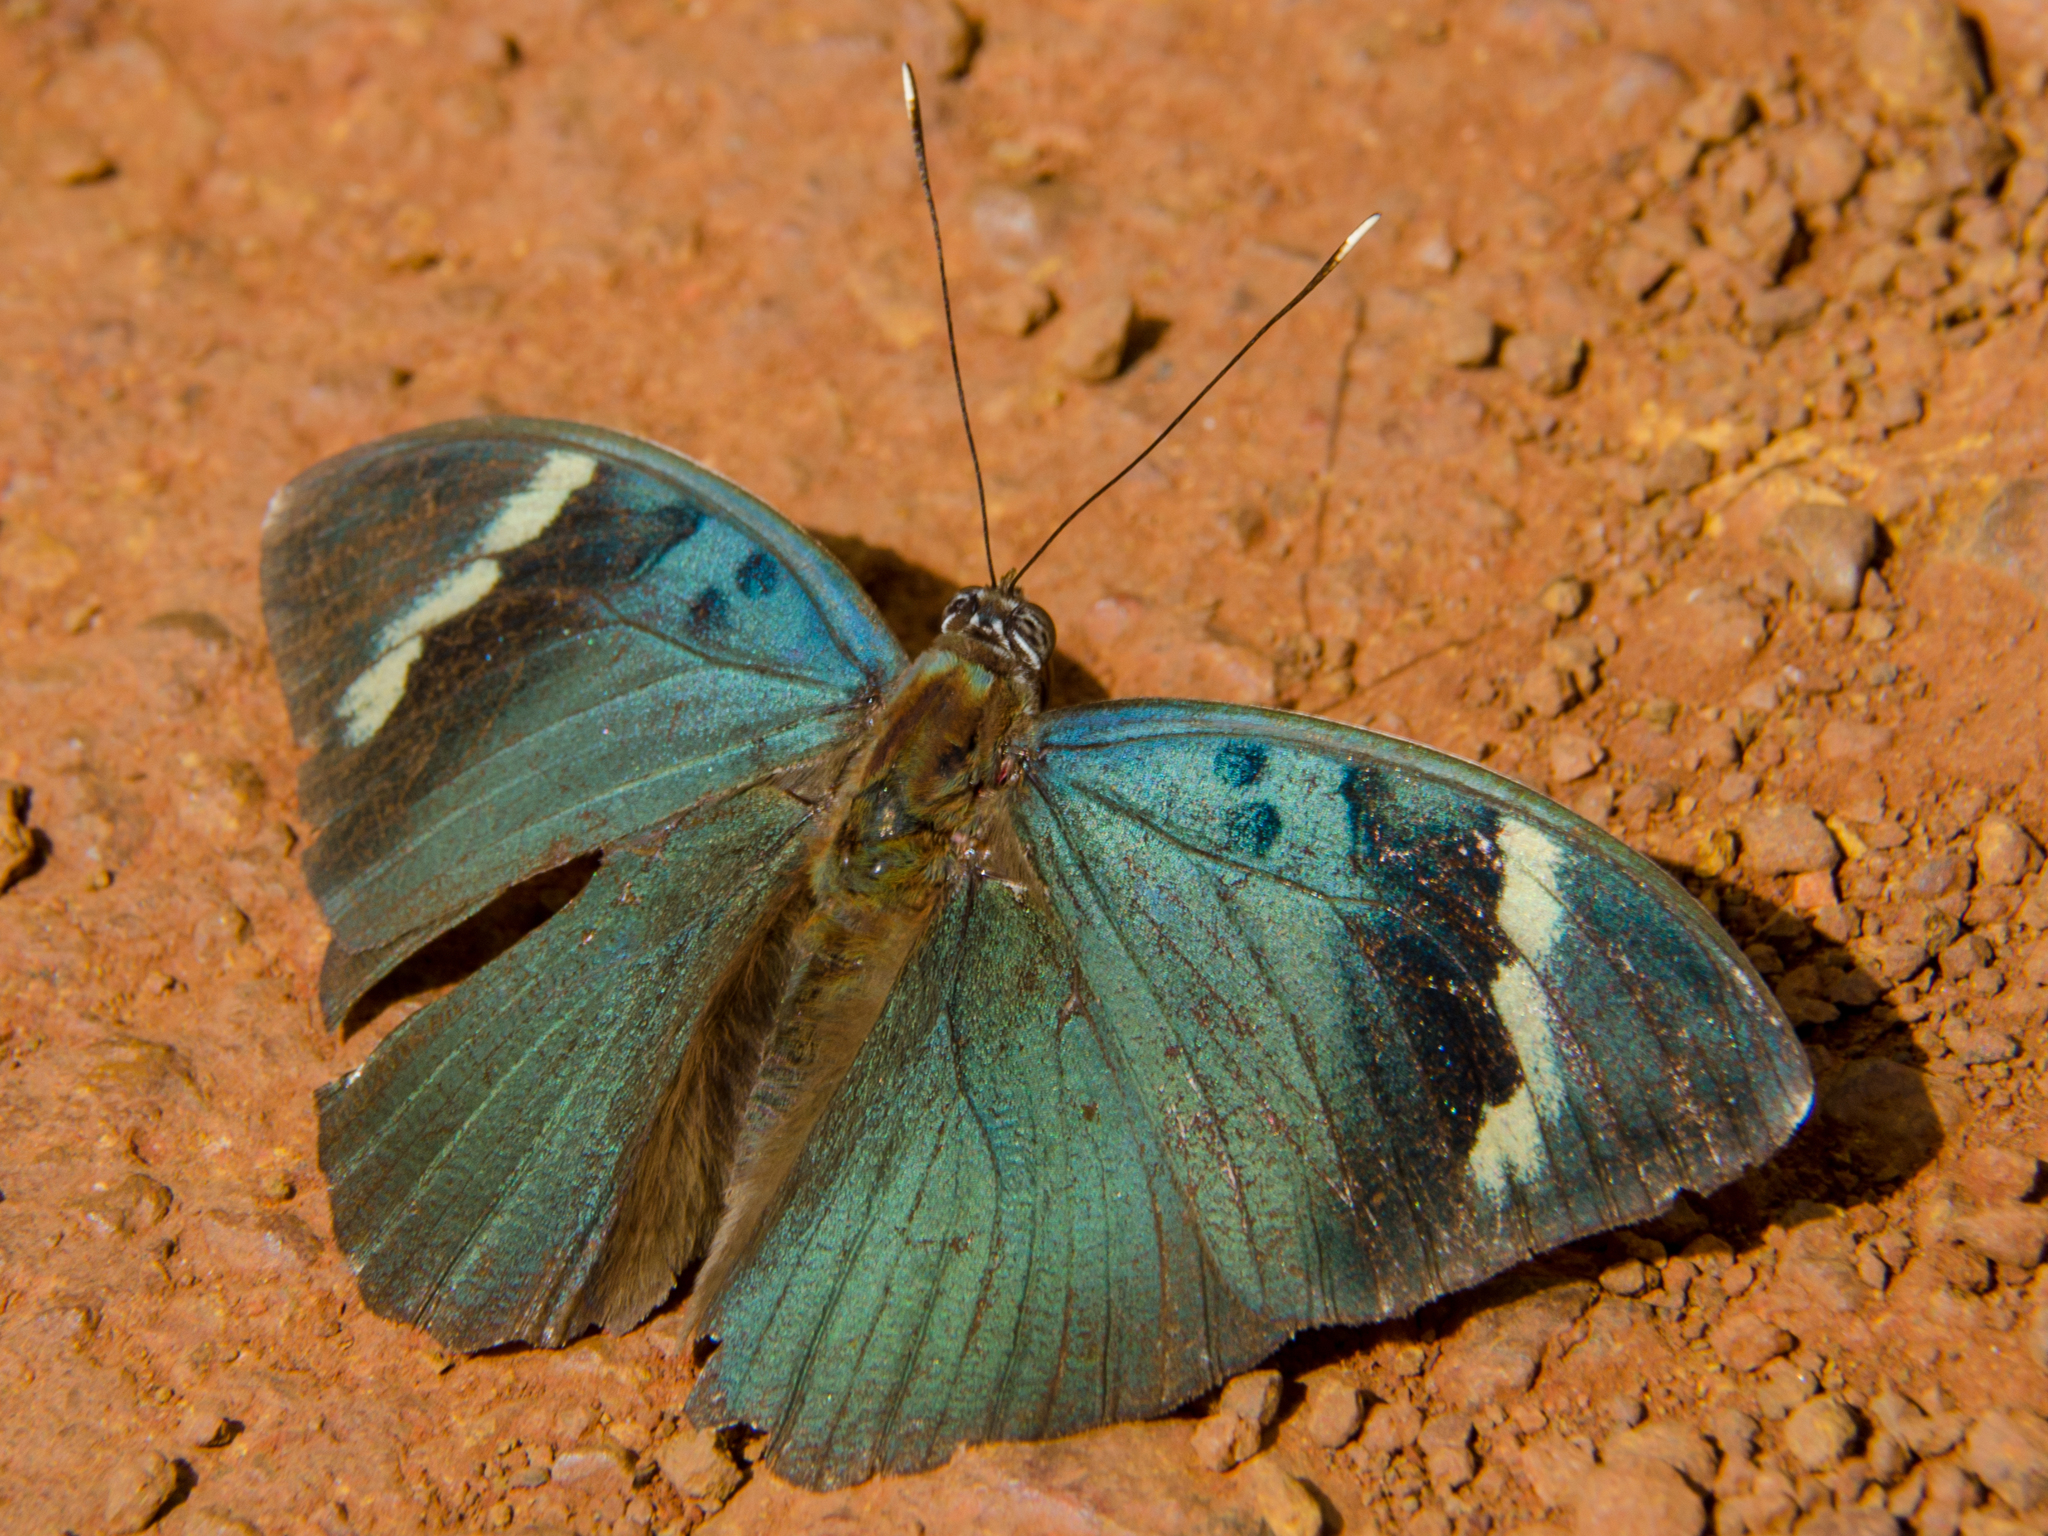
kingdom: Animalia
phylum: Arthropoda
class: Insecta
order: Lepidoptera
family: Nymphalidae
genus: Euphaedra
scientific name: Euphaedra medon
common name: Widespread forester
